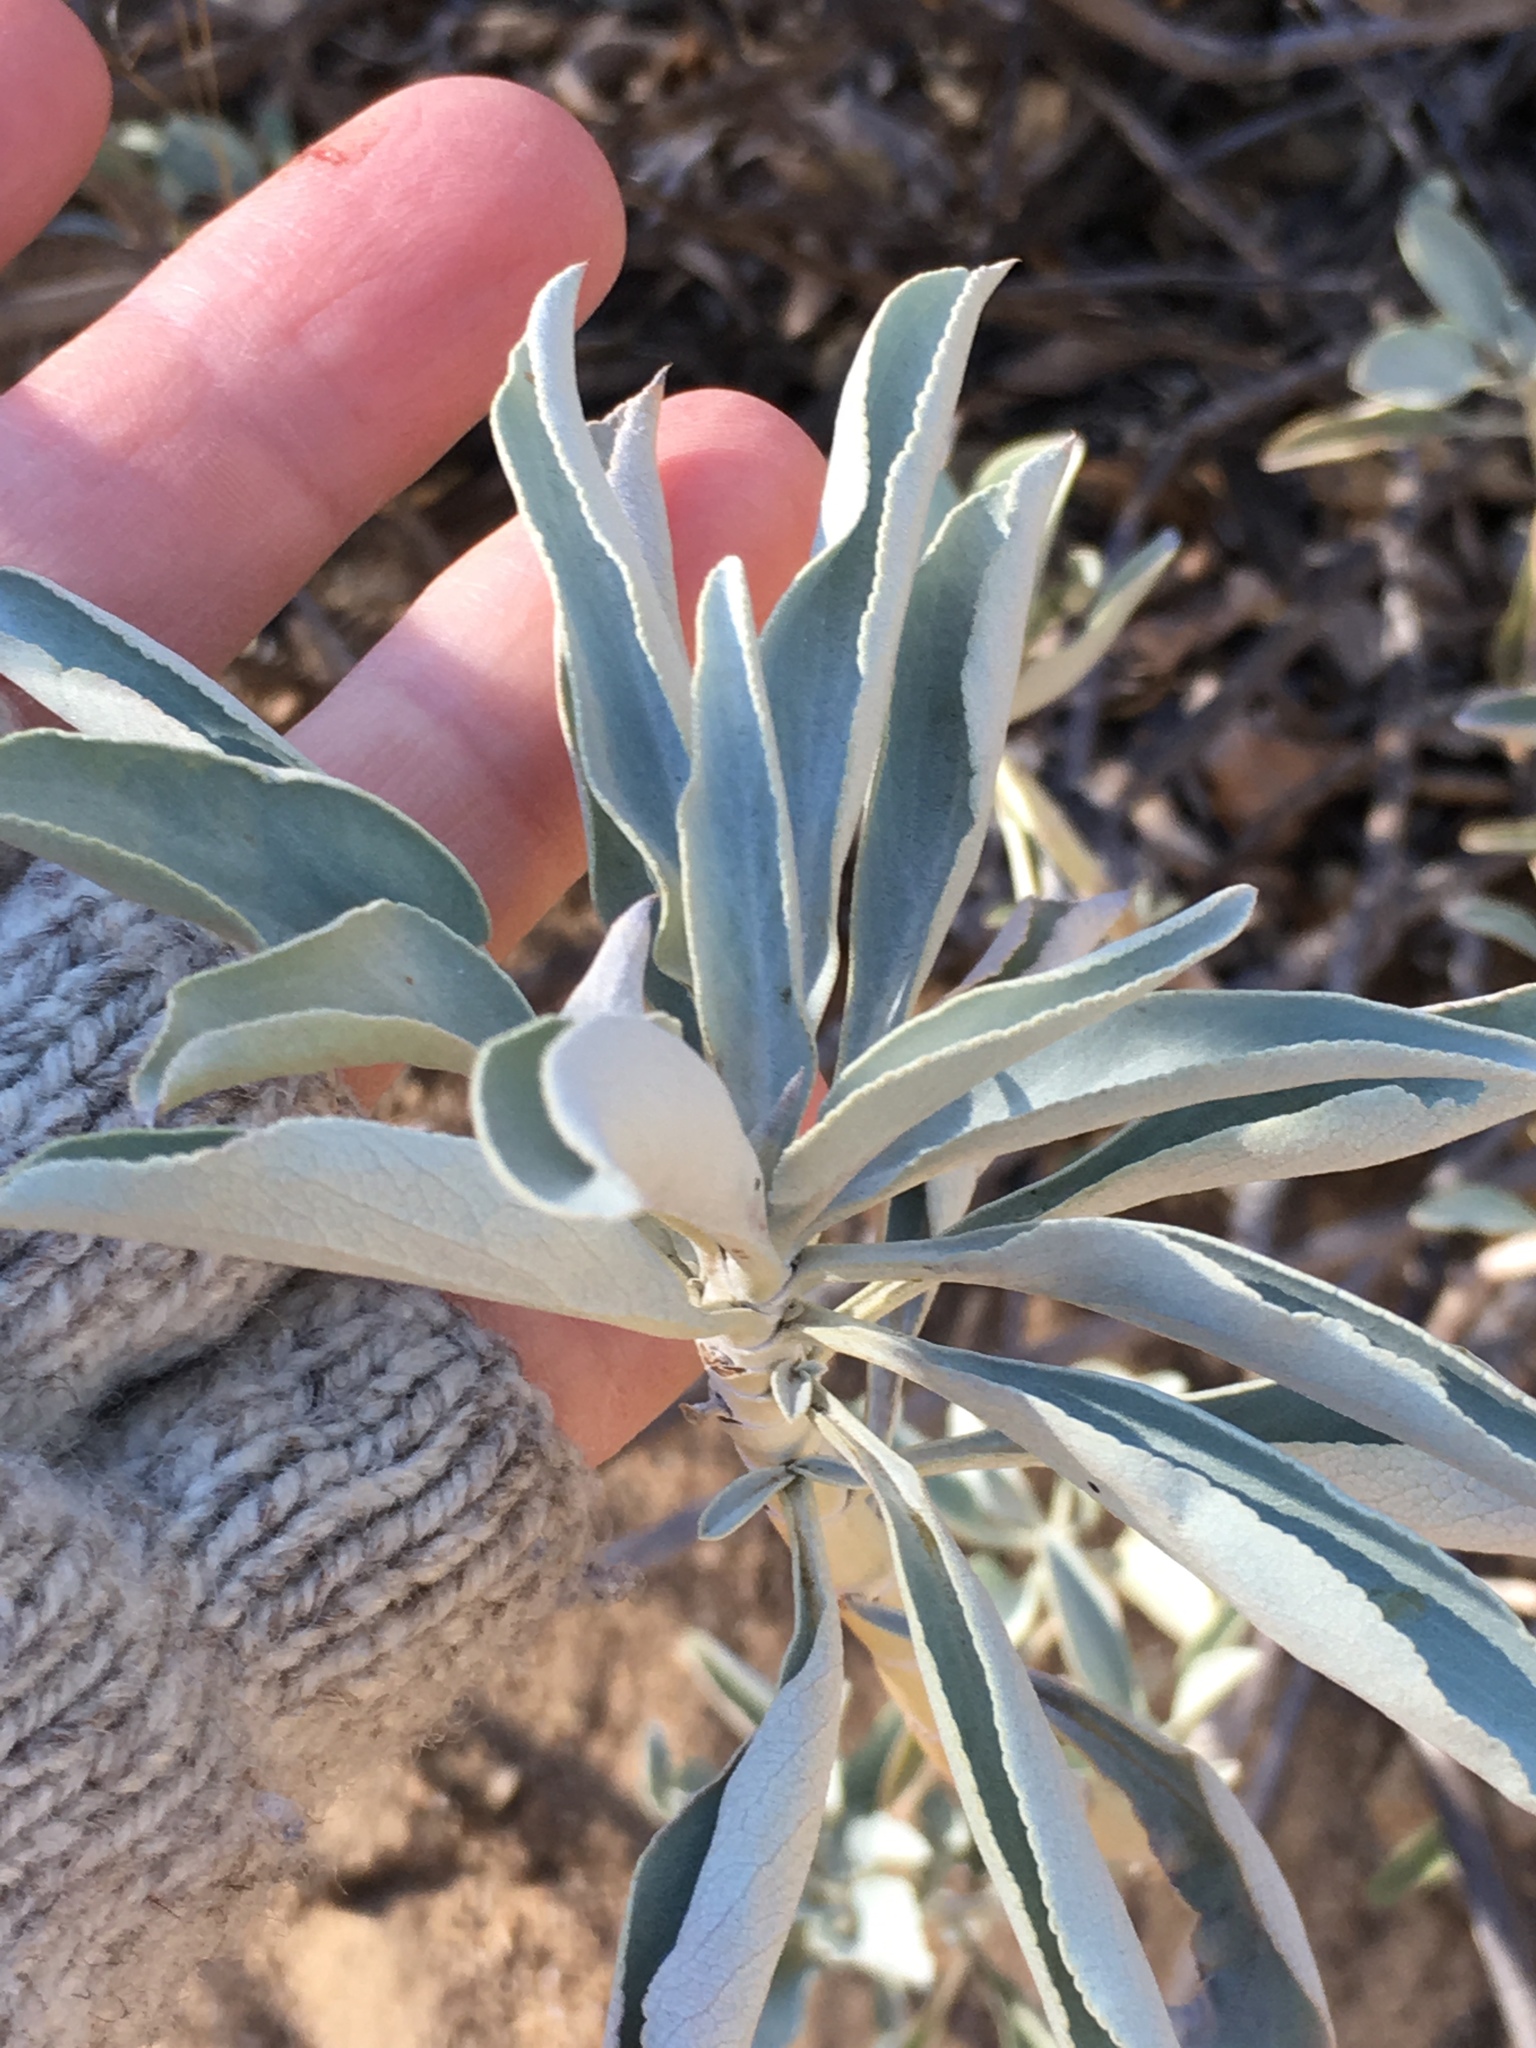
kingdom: Plantae
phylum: Tracheophyta
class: Magnoliopsida
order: Lamiales
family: Lamiaceae
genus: Salvia
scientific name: Salvia apiana
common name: White sage
